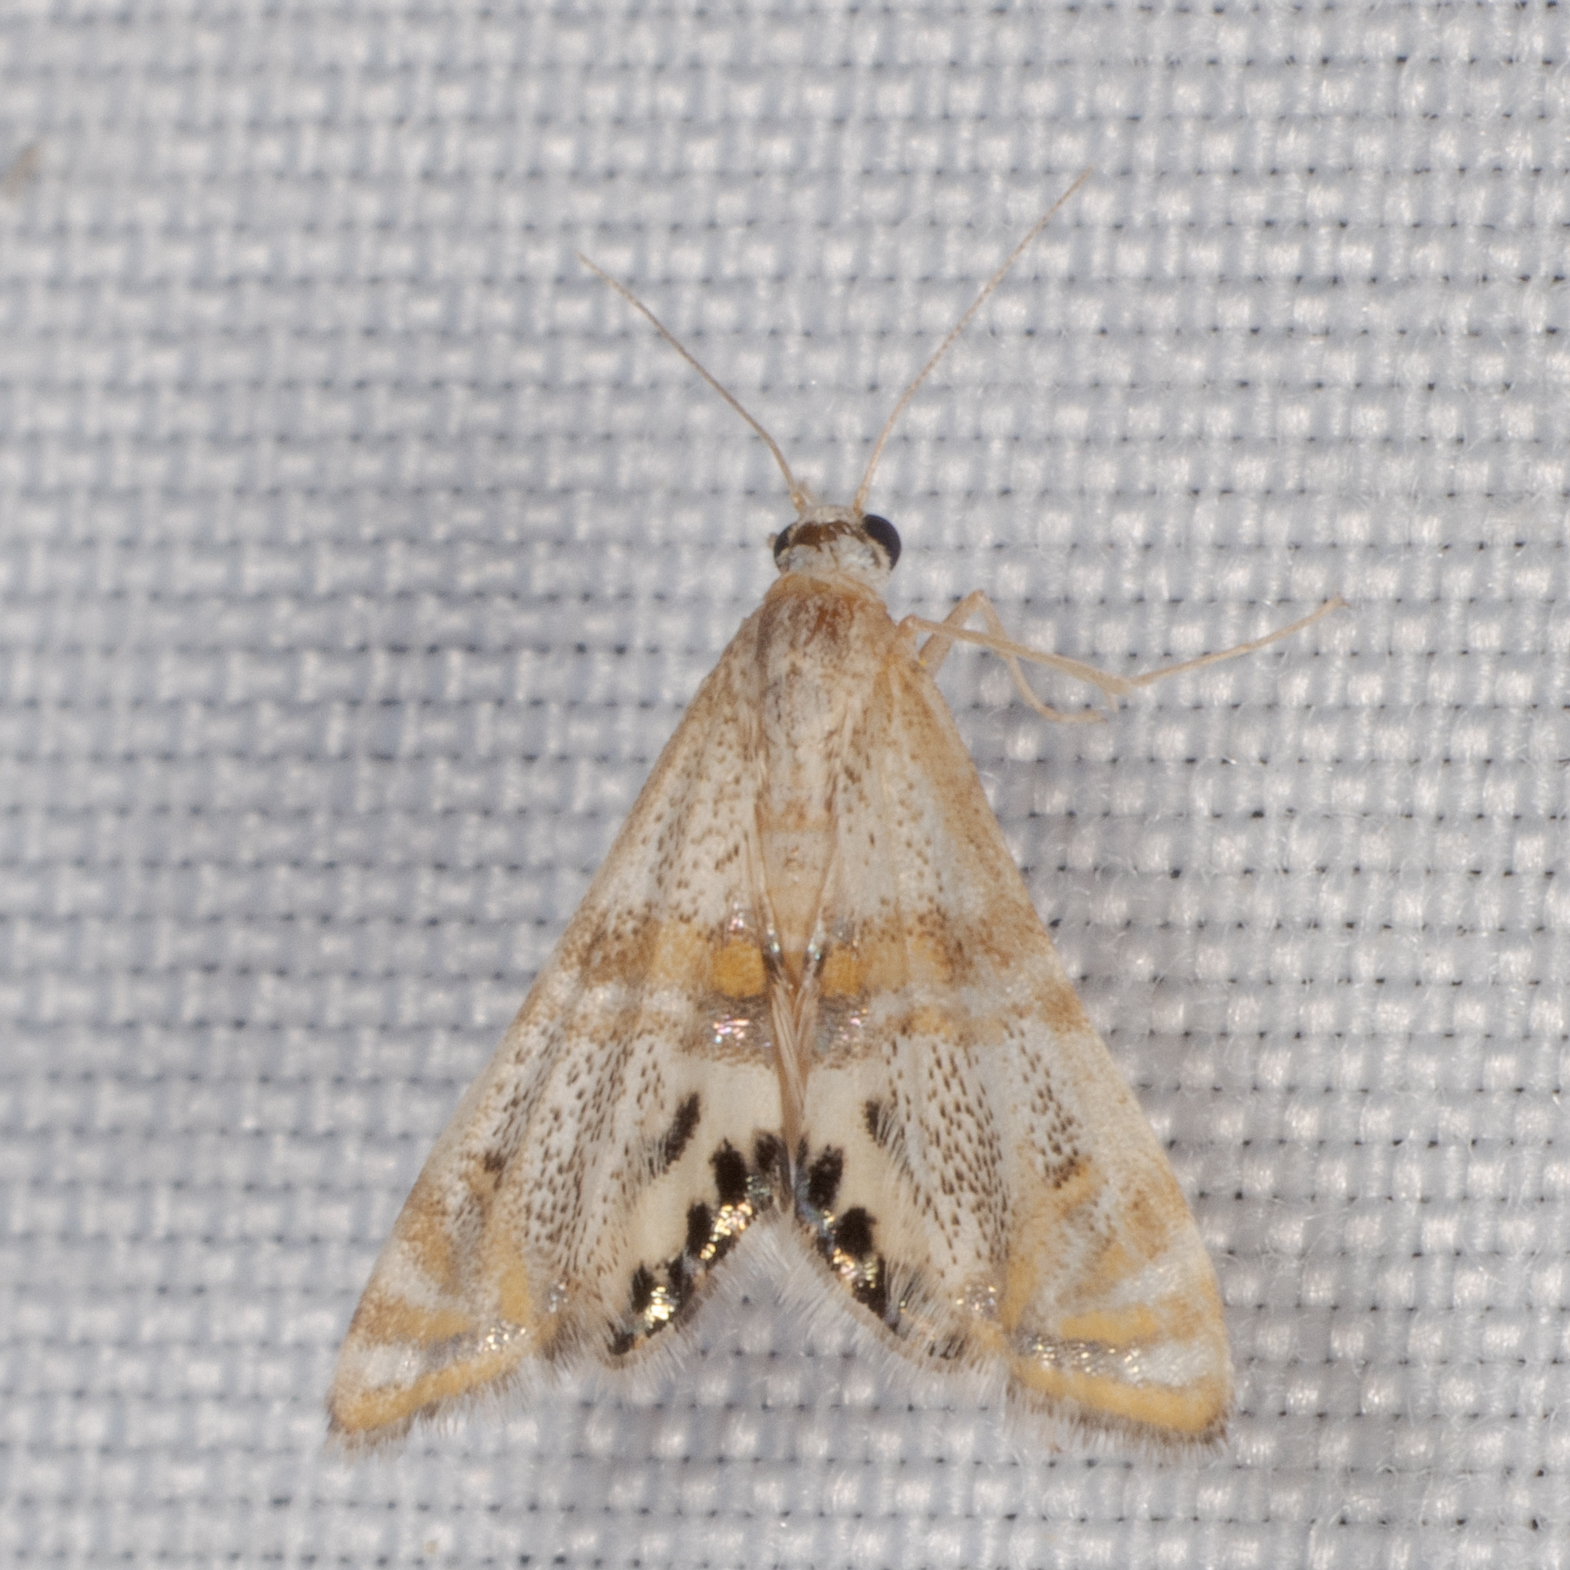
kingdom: Animalia
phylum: Arthropoda
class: Insecta
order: Lepidoptera
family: Crambidae
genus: Petrophila
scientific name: Petrophila bifascialis
